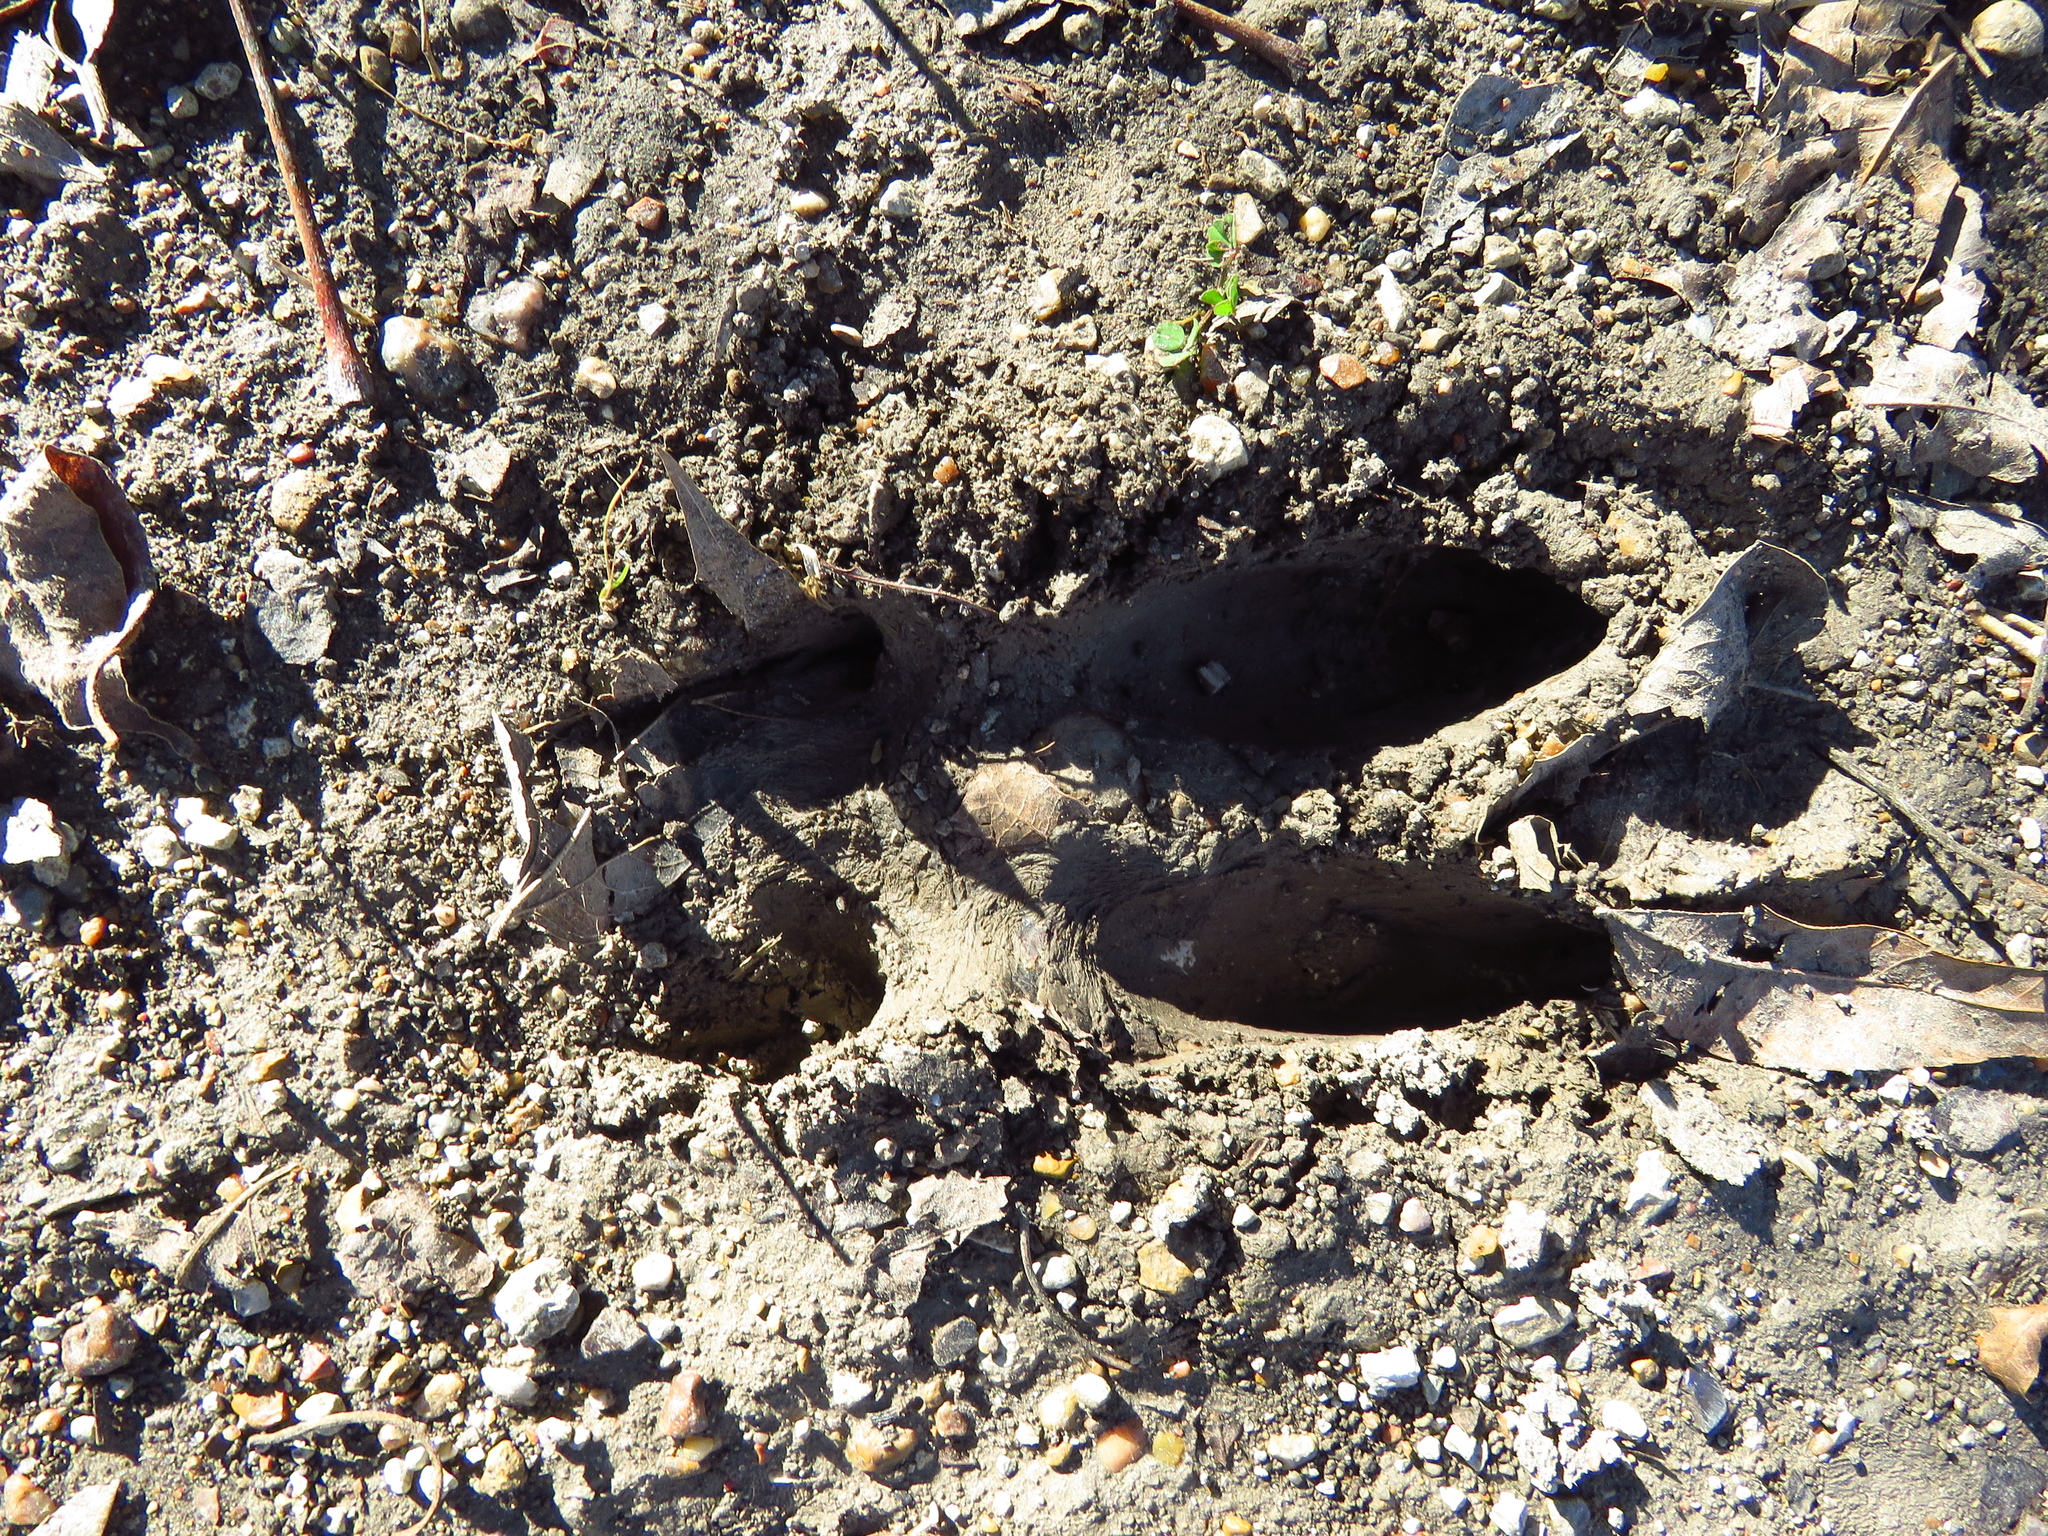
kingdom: Animalia
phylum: Chordata
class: Mammalia
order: Artiodactyla
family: Suidae
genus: Sus
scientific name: Sus scrofa
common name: Wild boar
